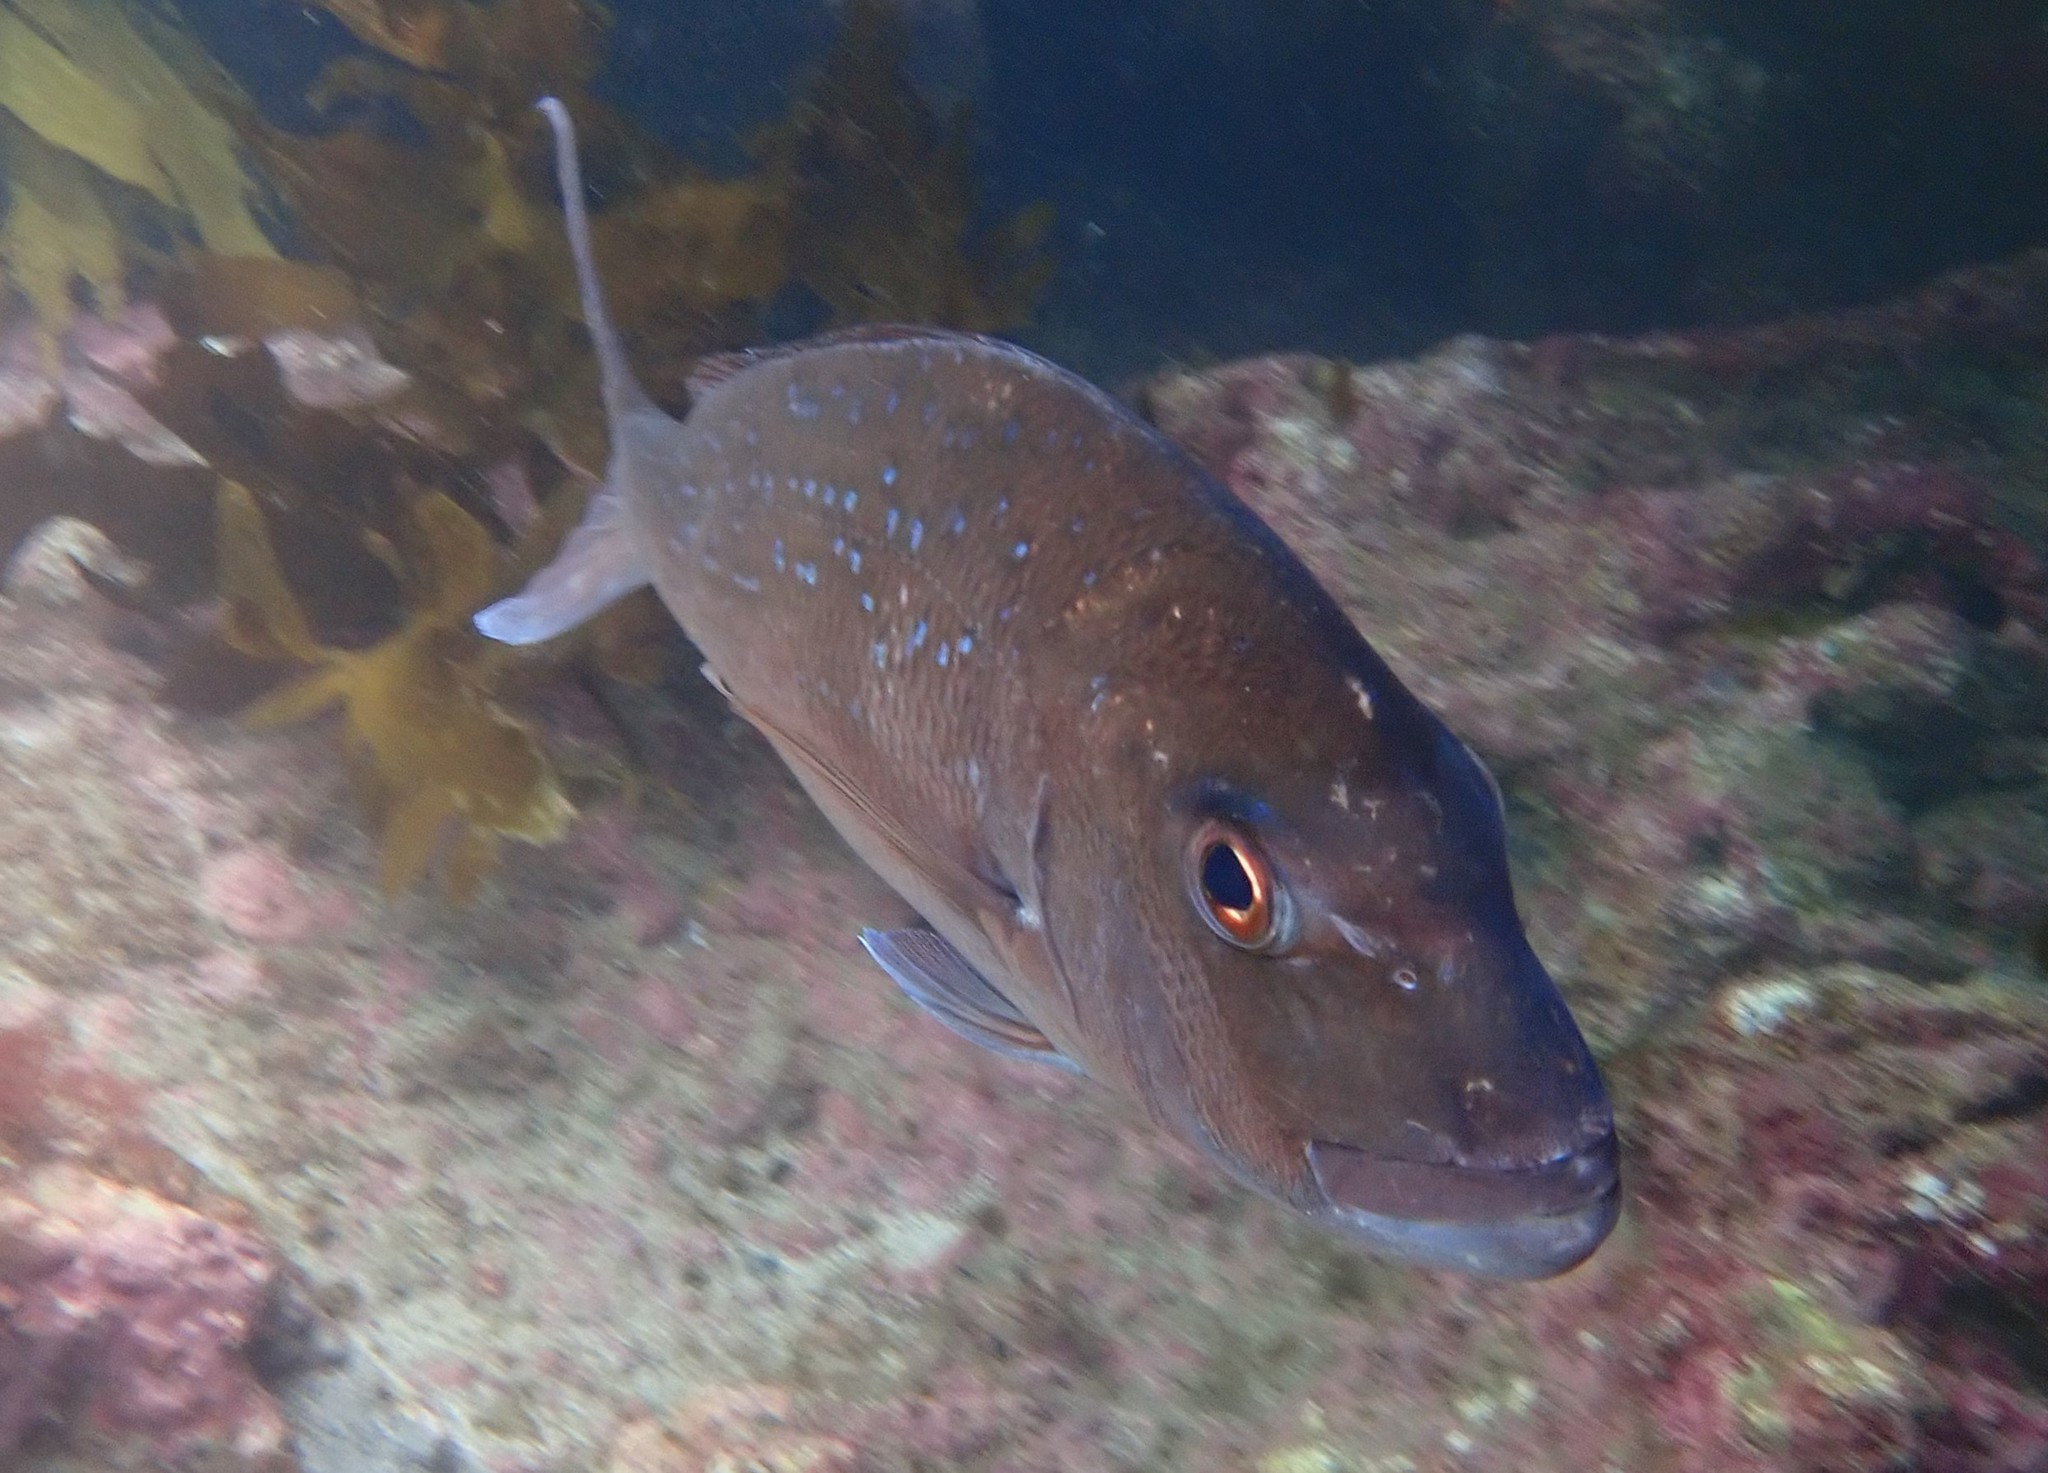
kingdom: Animalia
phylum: Chordata
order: Perciformes
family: Sparidae
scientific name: Sparidae
